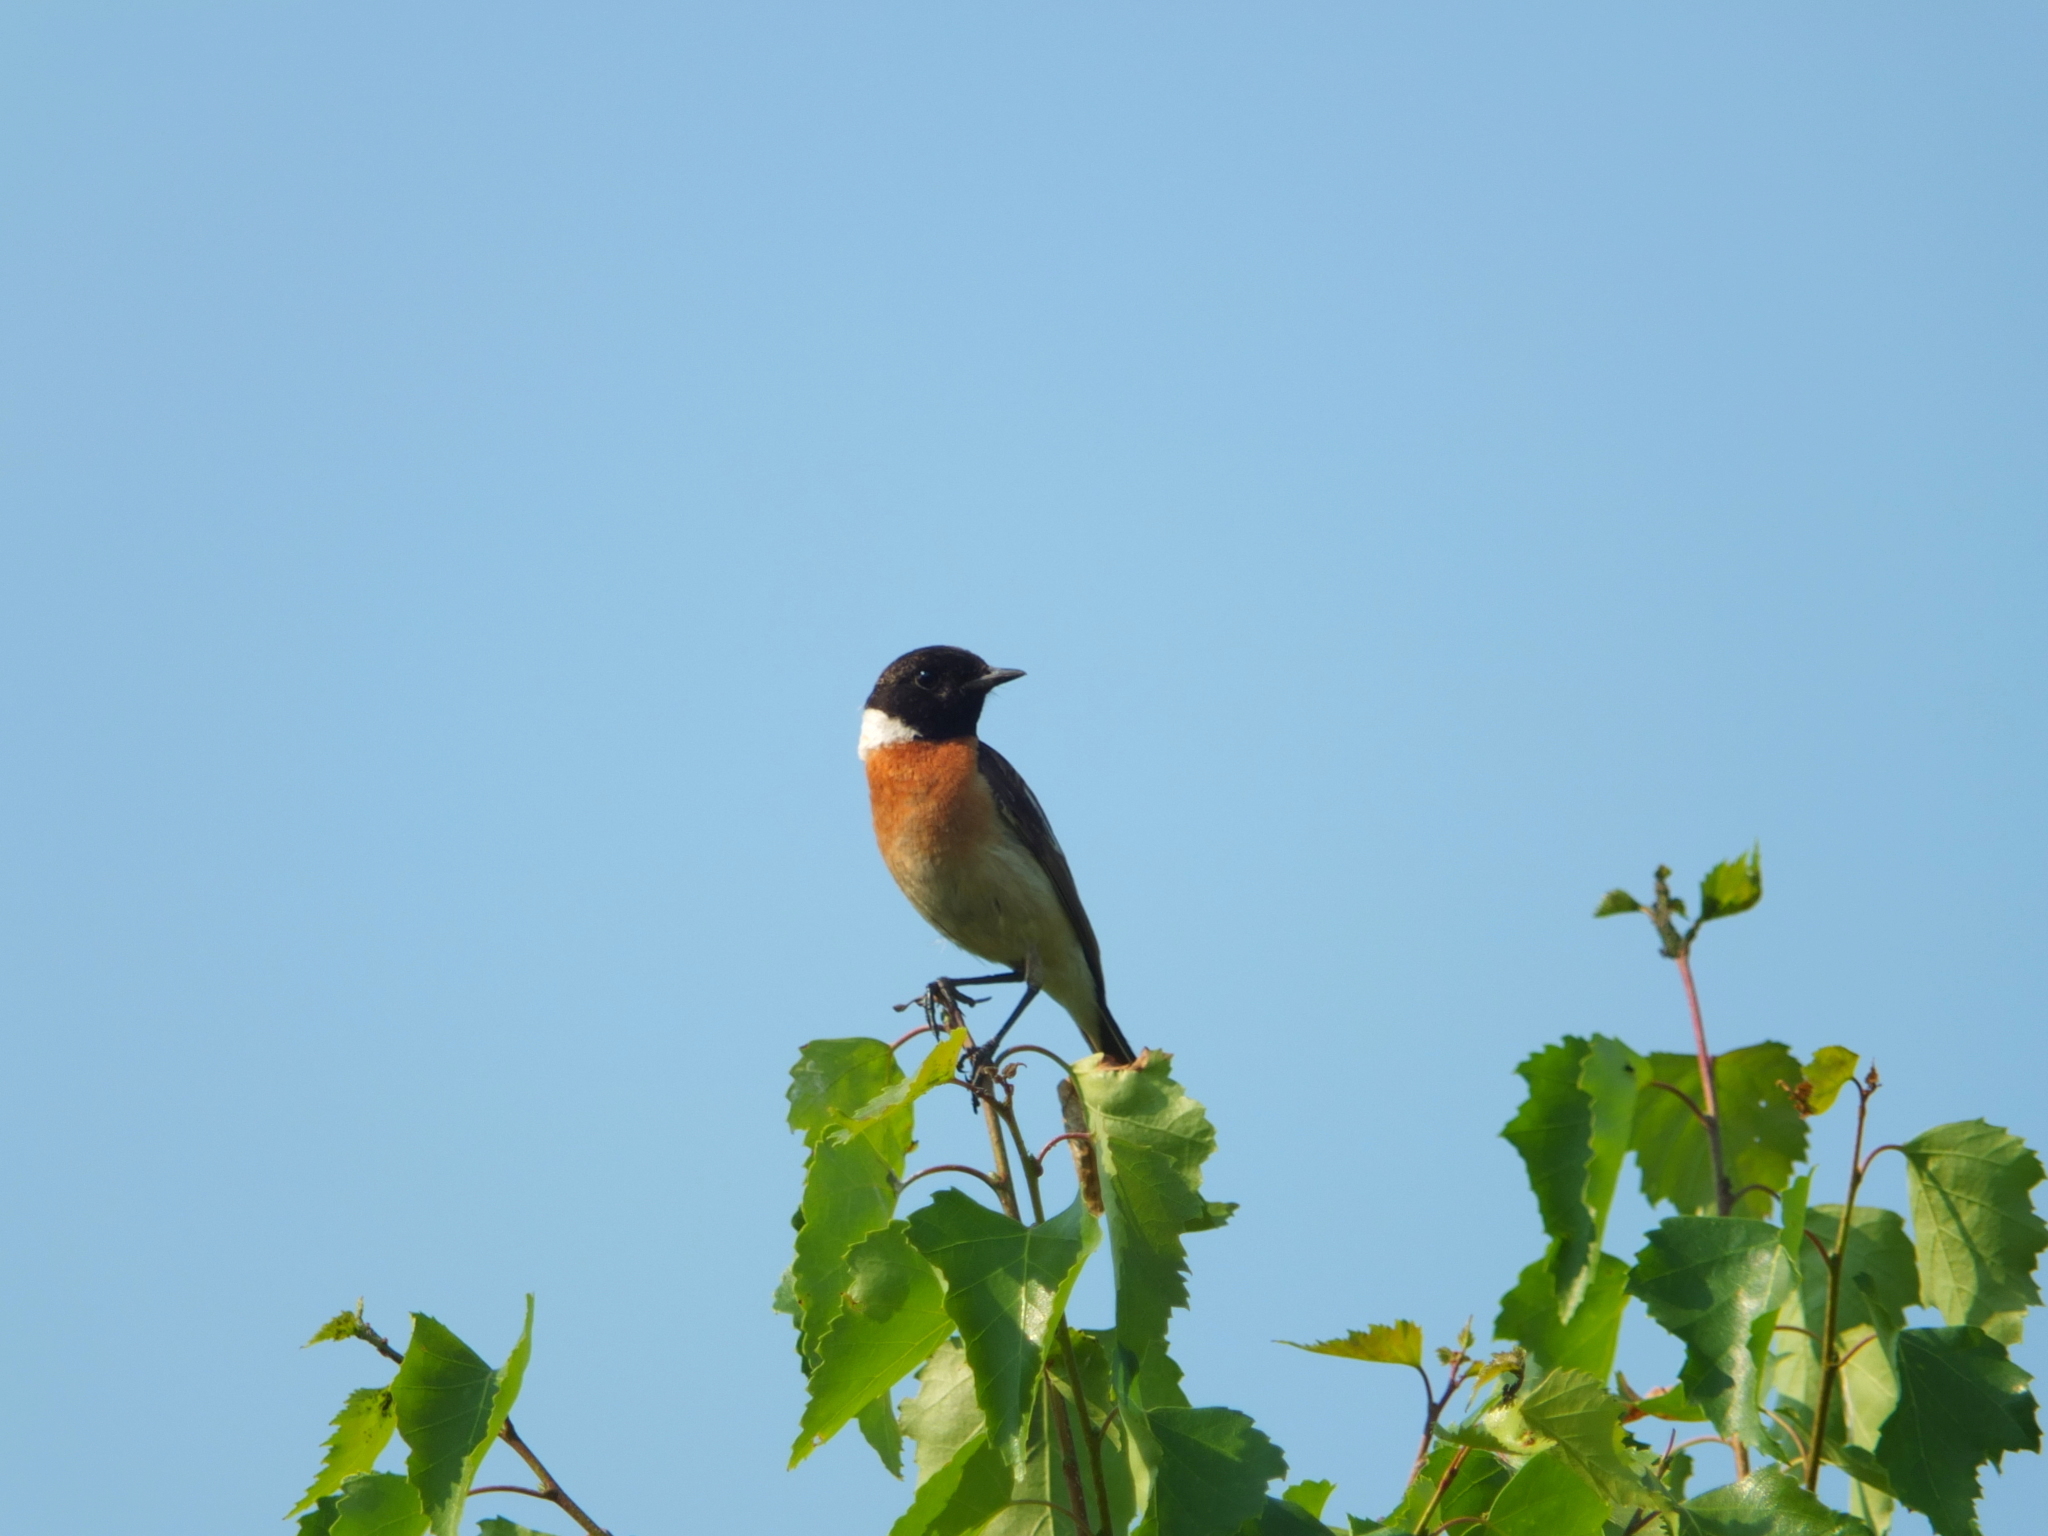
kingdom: Animalia
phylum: Chordata
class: Aves
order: Passeriformes
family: Muscicapidae
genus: Saxicola
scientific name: Saxicola maurus
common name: Siberian stonechat
